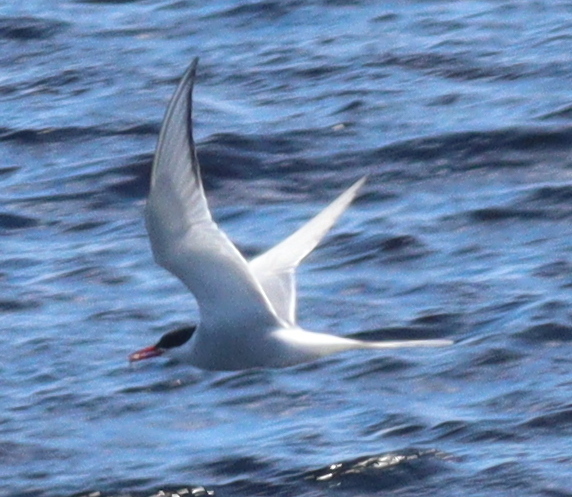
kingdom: Animalia
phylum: Chordata
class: Aves
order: Charadriiformes
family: Laridae
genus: Sterna
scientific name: Sterna paradisaea
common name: Arctic tern
